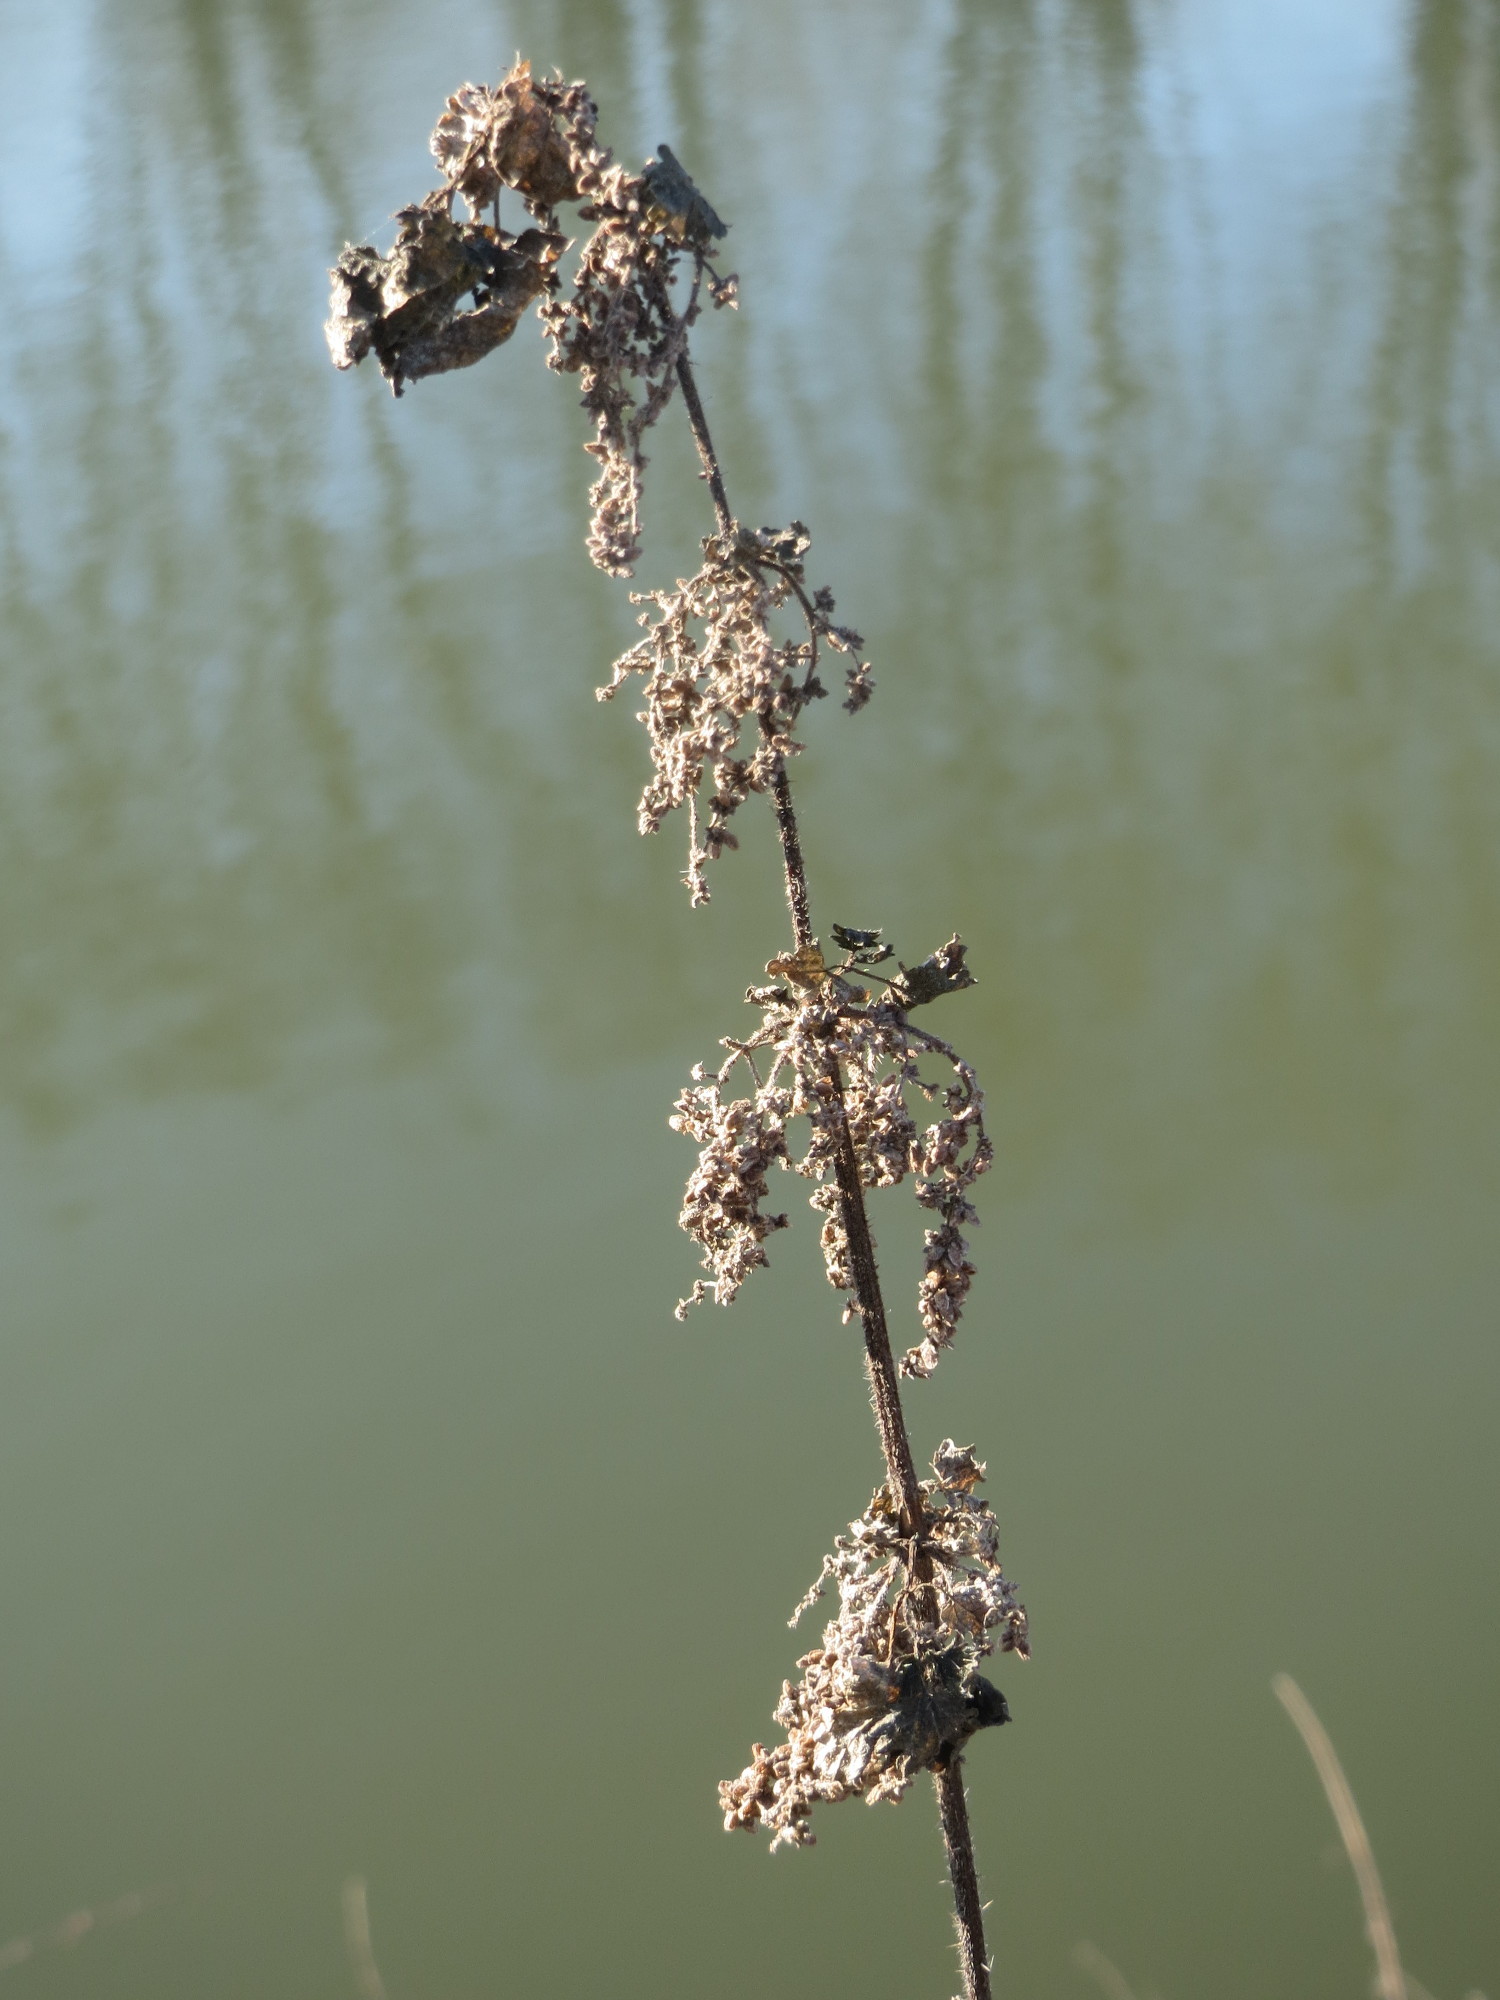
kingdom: Plantae
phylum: Tracheophyta
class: Magnoliopsida
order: Rosales
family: Urticaceae
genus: Urtica
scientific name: Urtica dioica
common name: Common nettle
